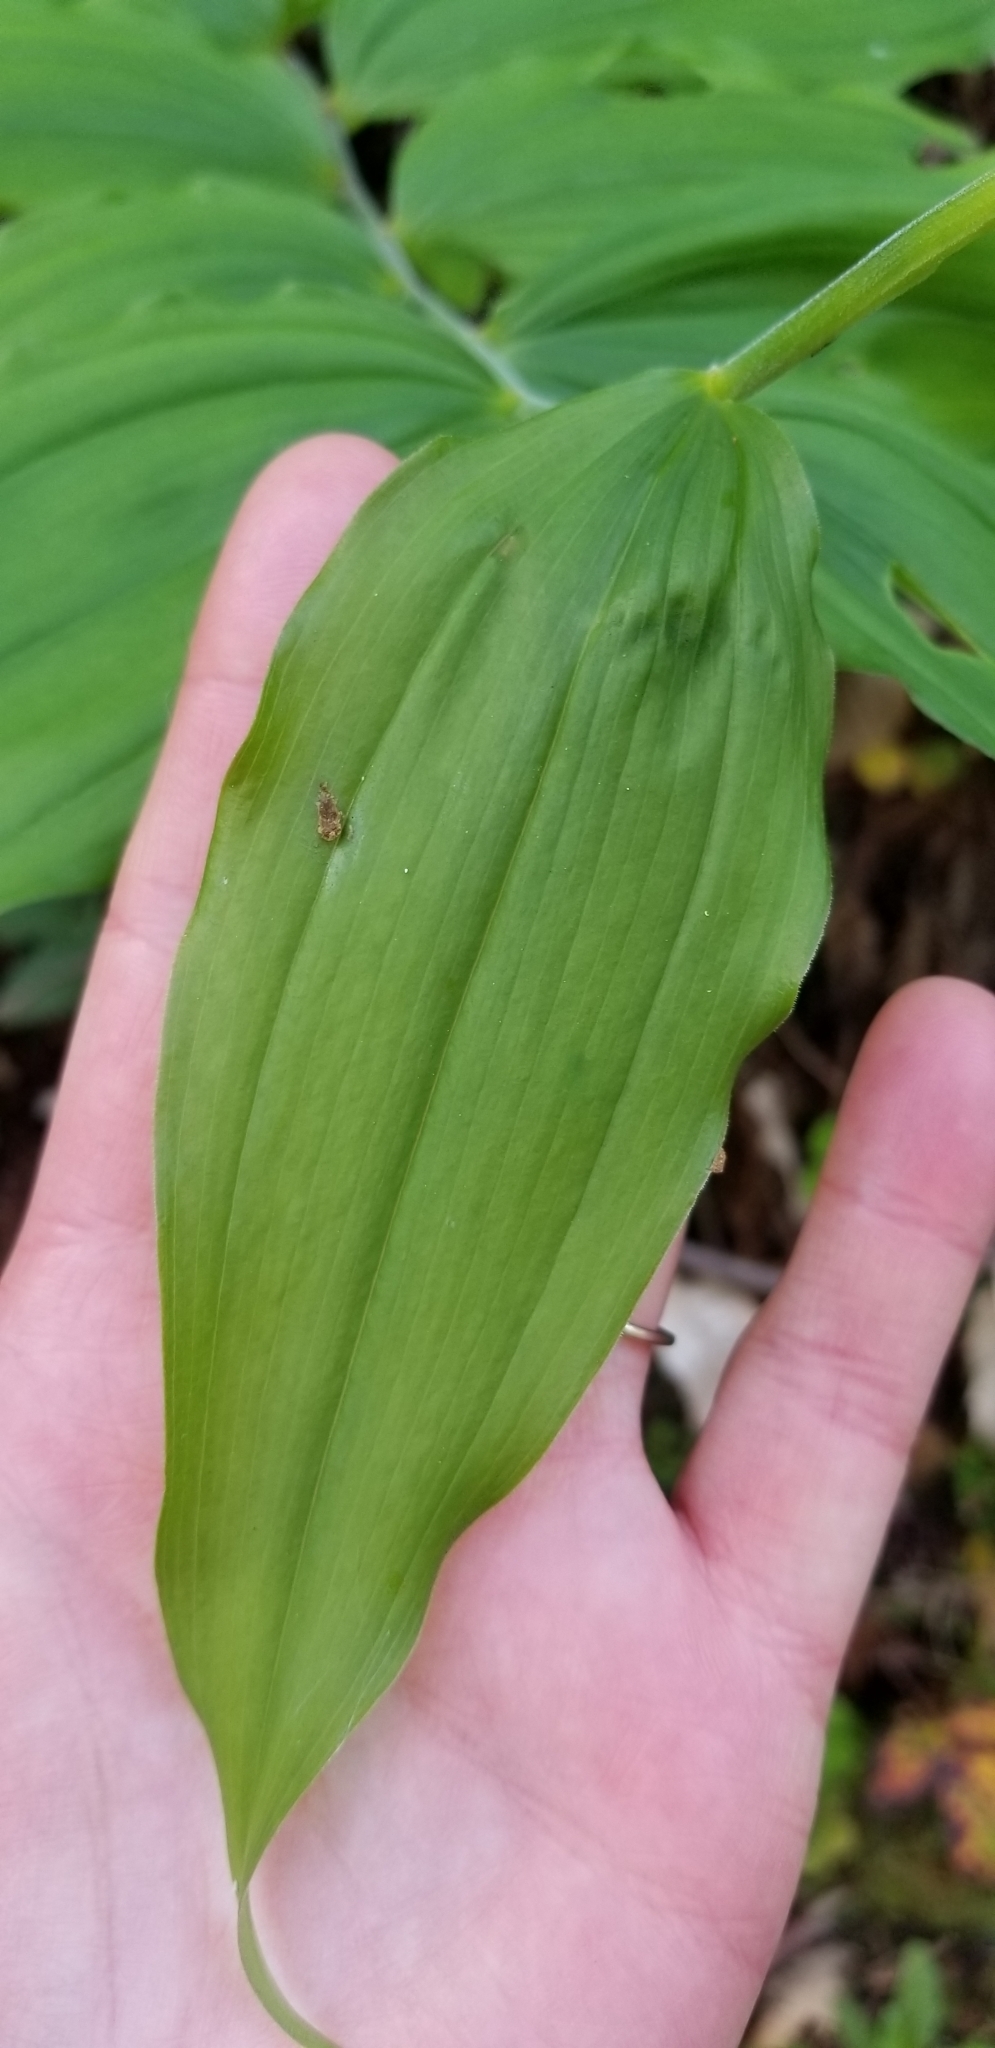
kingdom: Plantae
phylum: Tracheophyta
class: Liliopsida
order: Asparagales
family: Asparagaceae
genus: Maianthemum
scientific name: Maianthemum racemosum
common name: False spikenard
